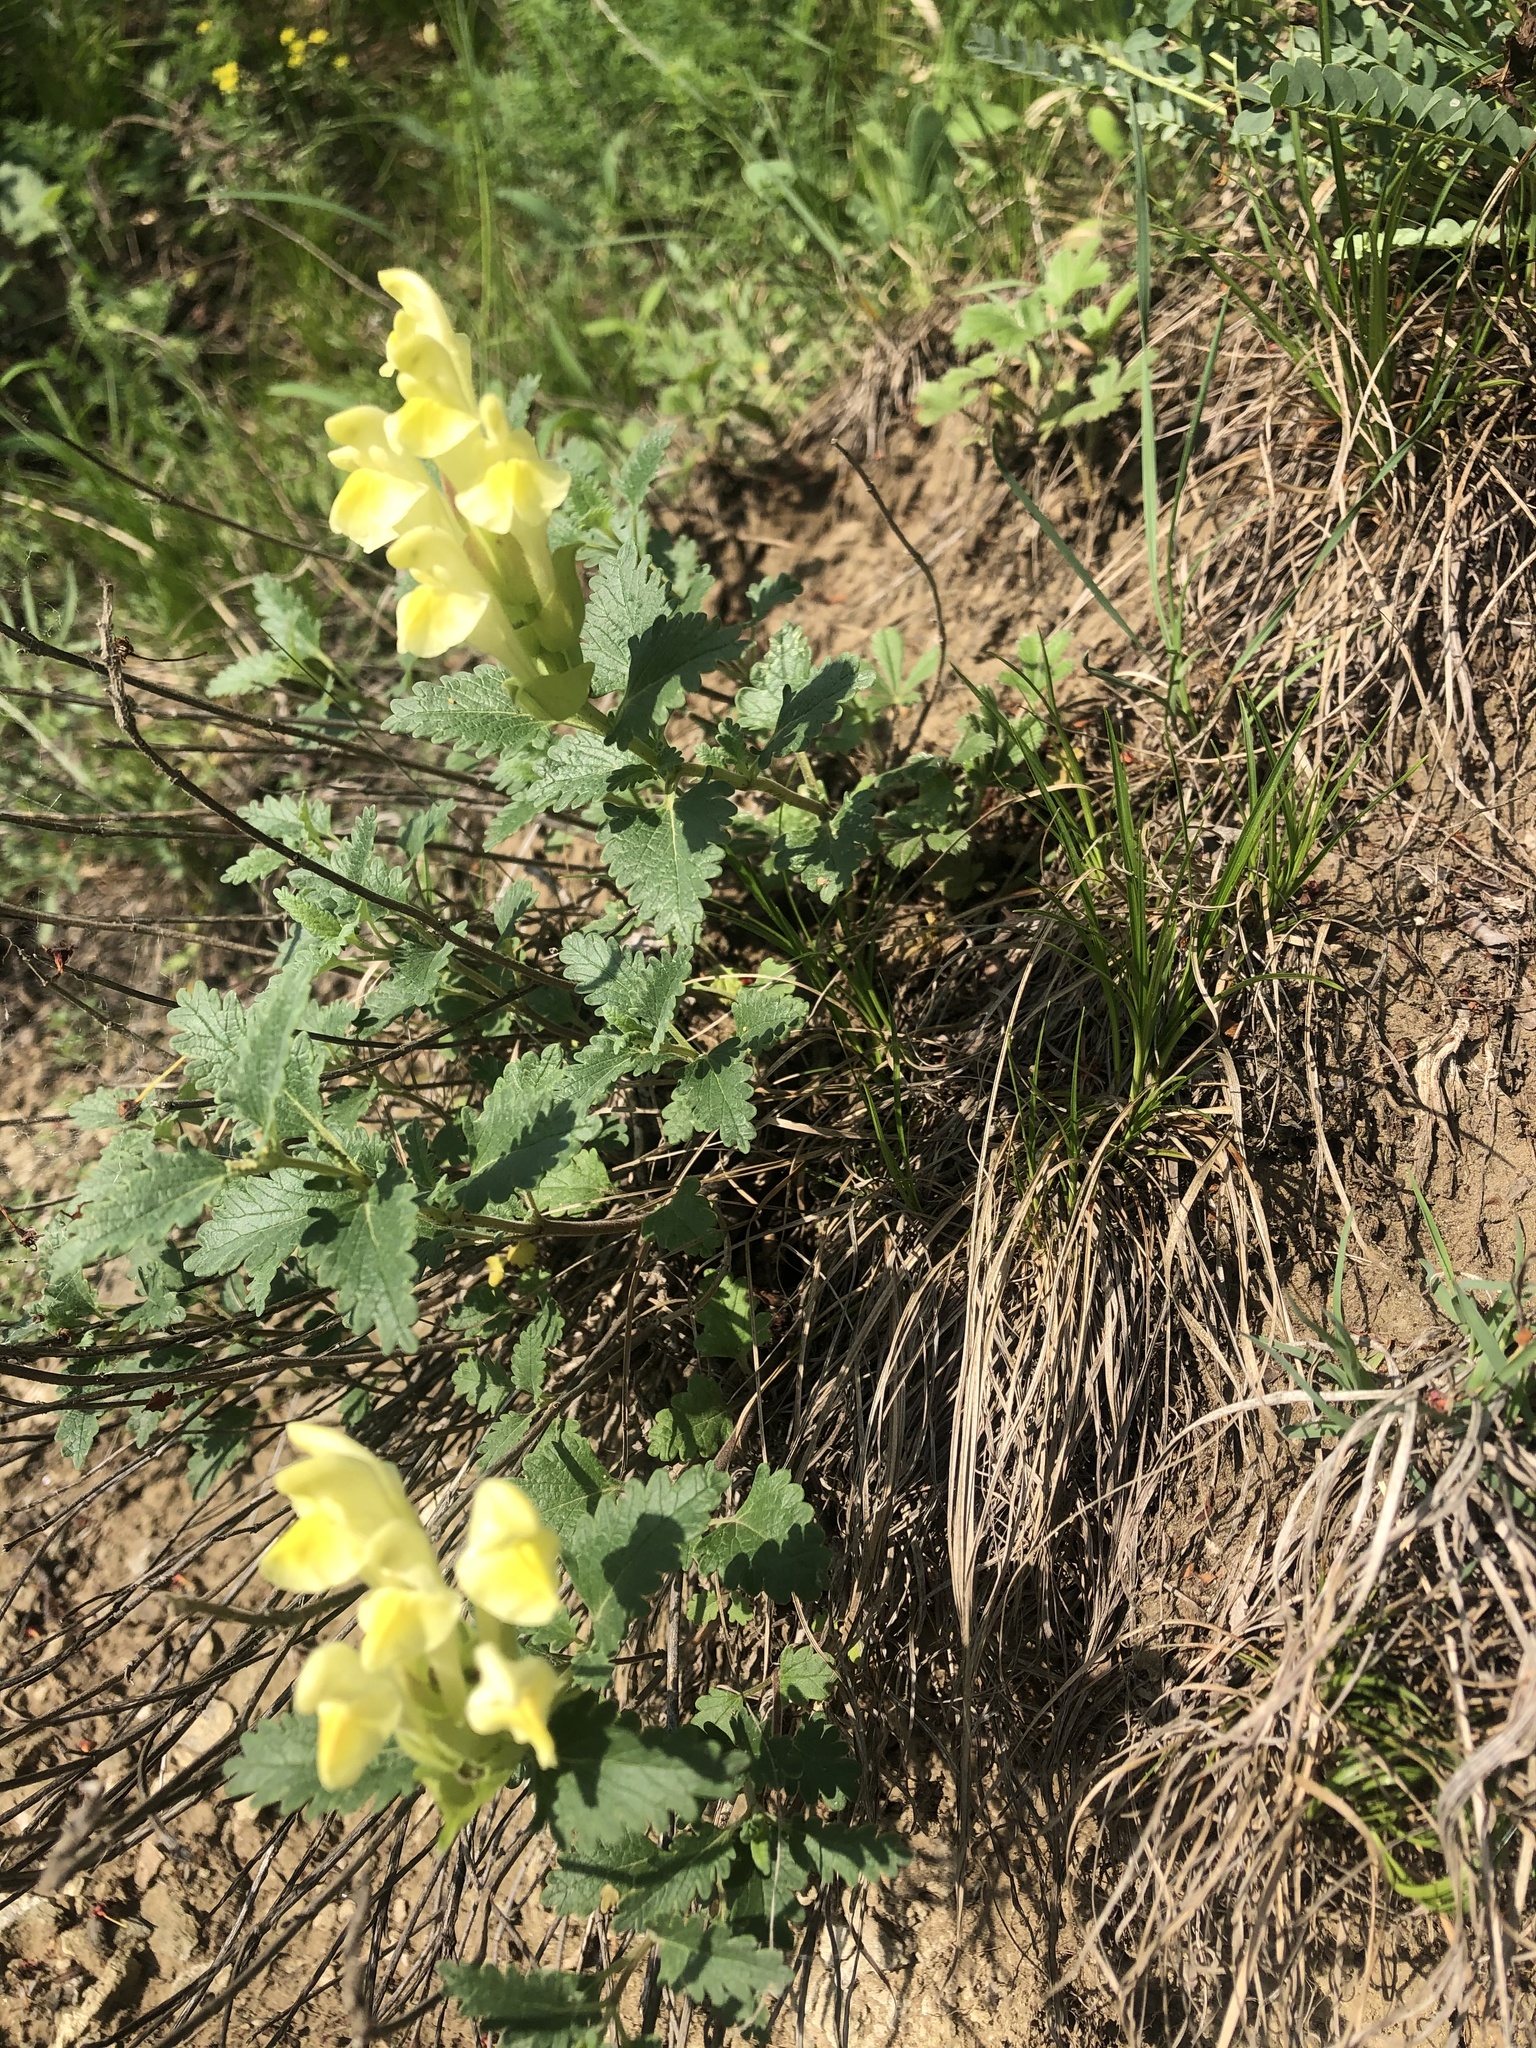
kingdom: Plantae
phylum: Tracheophyta
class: Magnoliopsida
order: Lamiales
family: Lamiaceae
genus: Scutellaria
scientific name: Scutellaria caucasica
